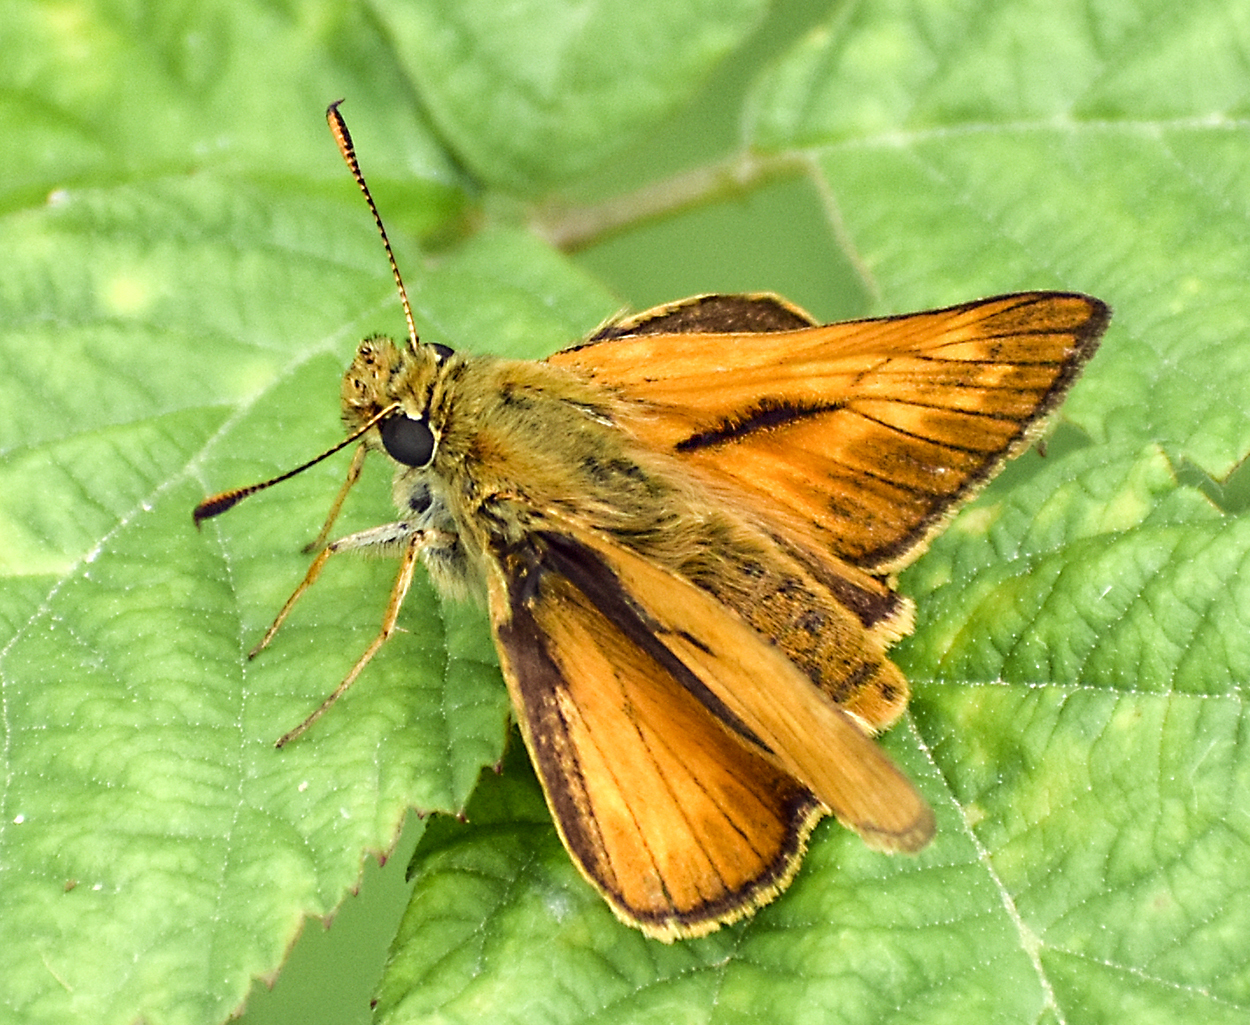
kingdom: Animalia
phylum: Arthropoda
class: Insecta
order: Lepidoptera
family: Hesperiidae
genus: Ochlodes
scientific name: Ochlodes venata
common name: Large skipper
